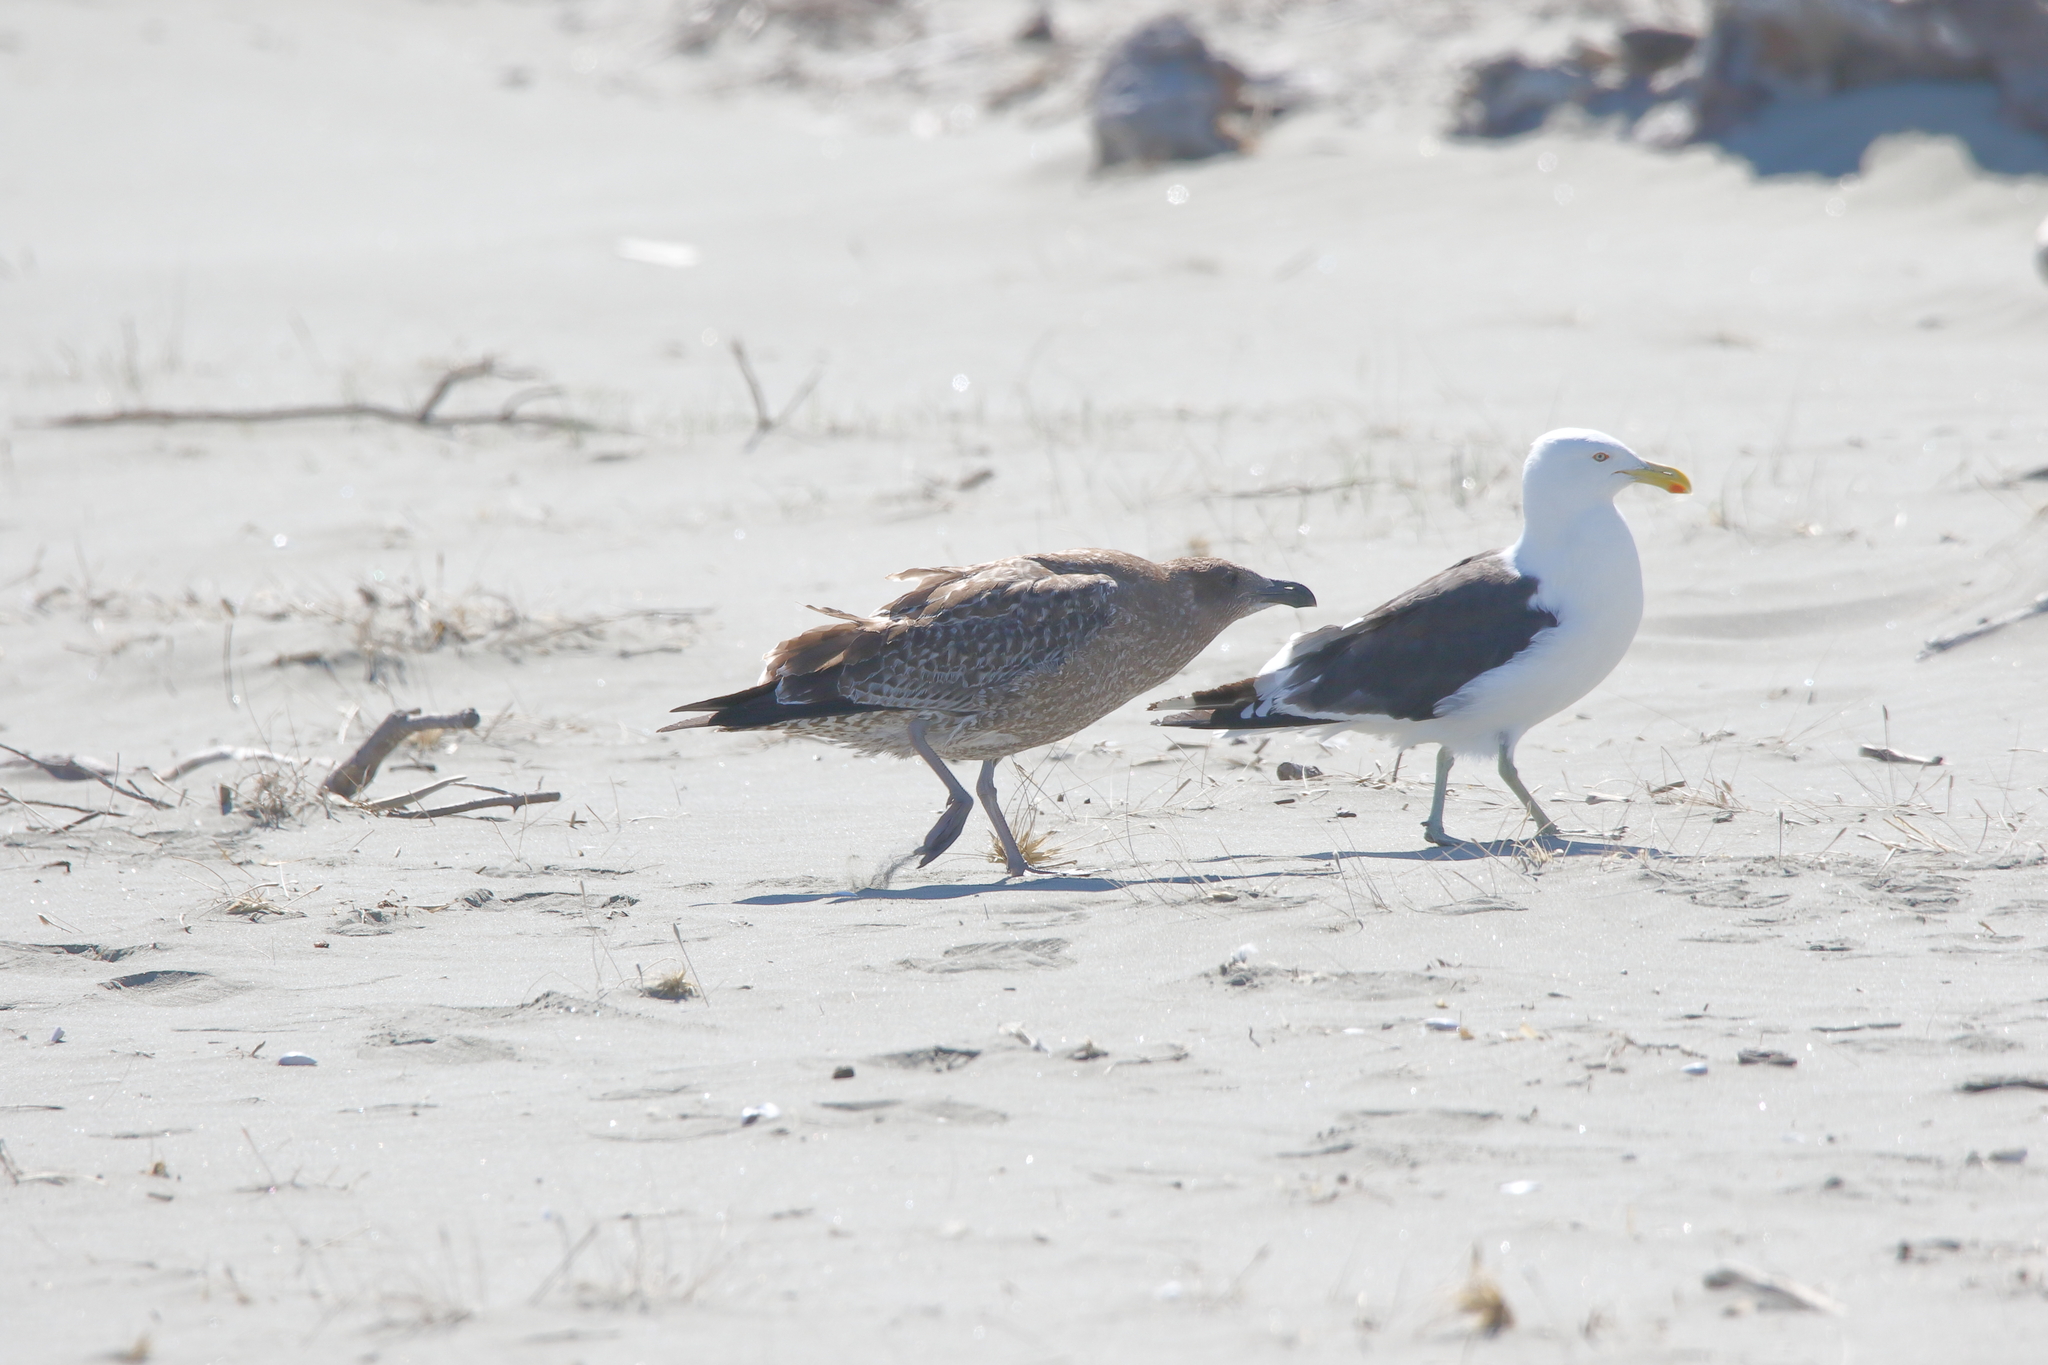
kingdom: Animalia
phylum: Chordata
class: Aves
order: Charadriiformes
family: Laridae
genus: Larus
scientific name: Larus dominicanus
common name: Kelp gull
